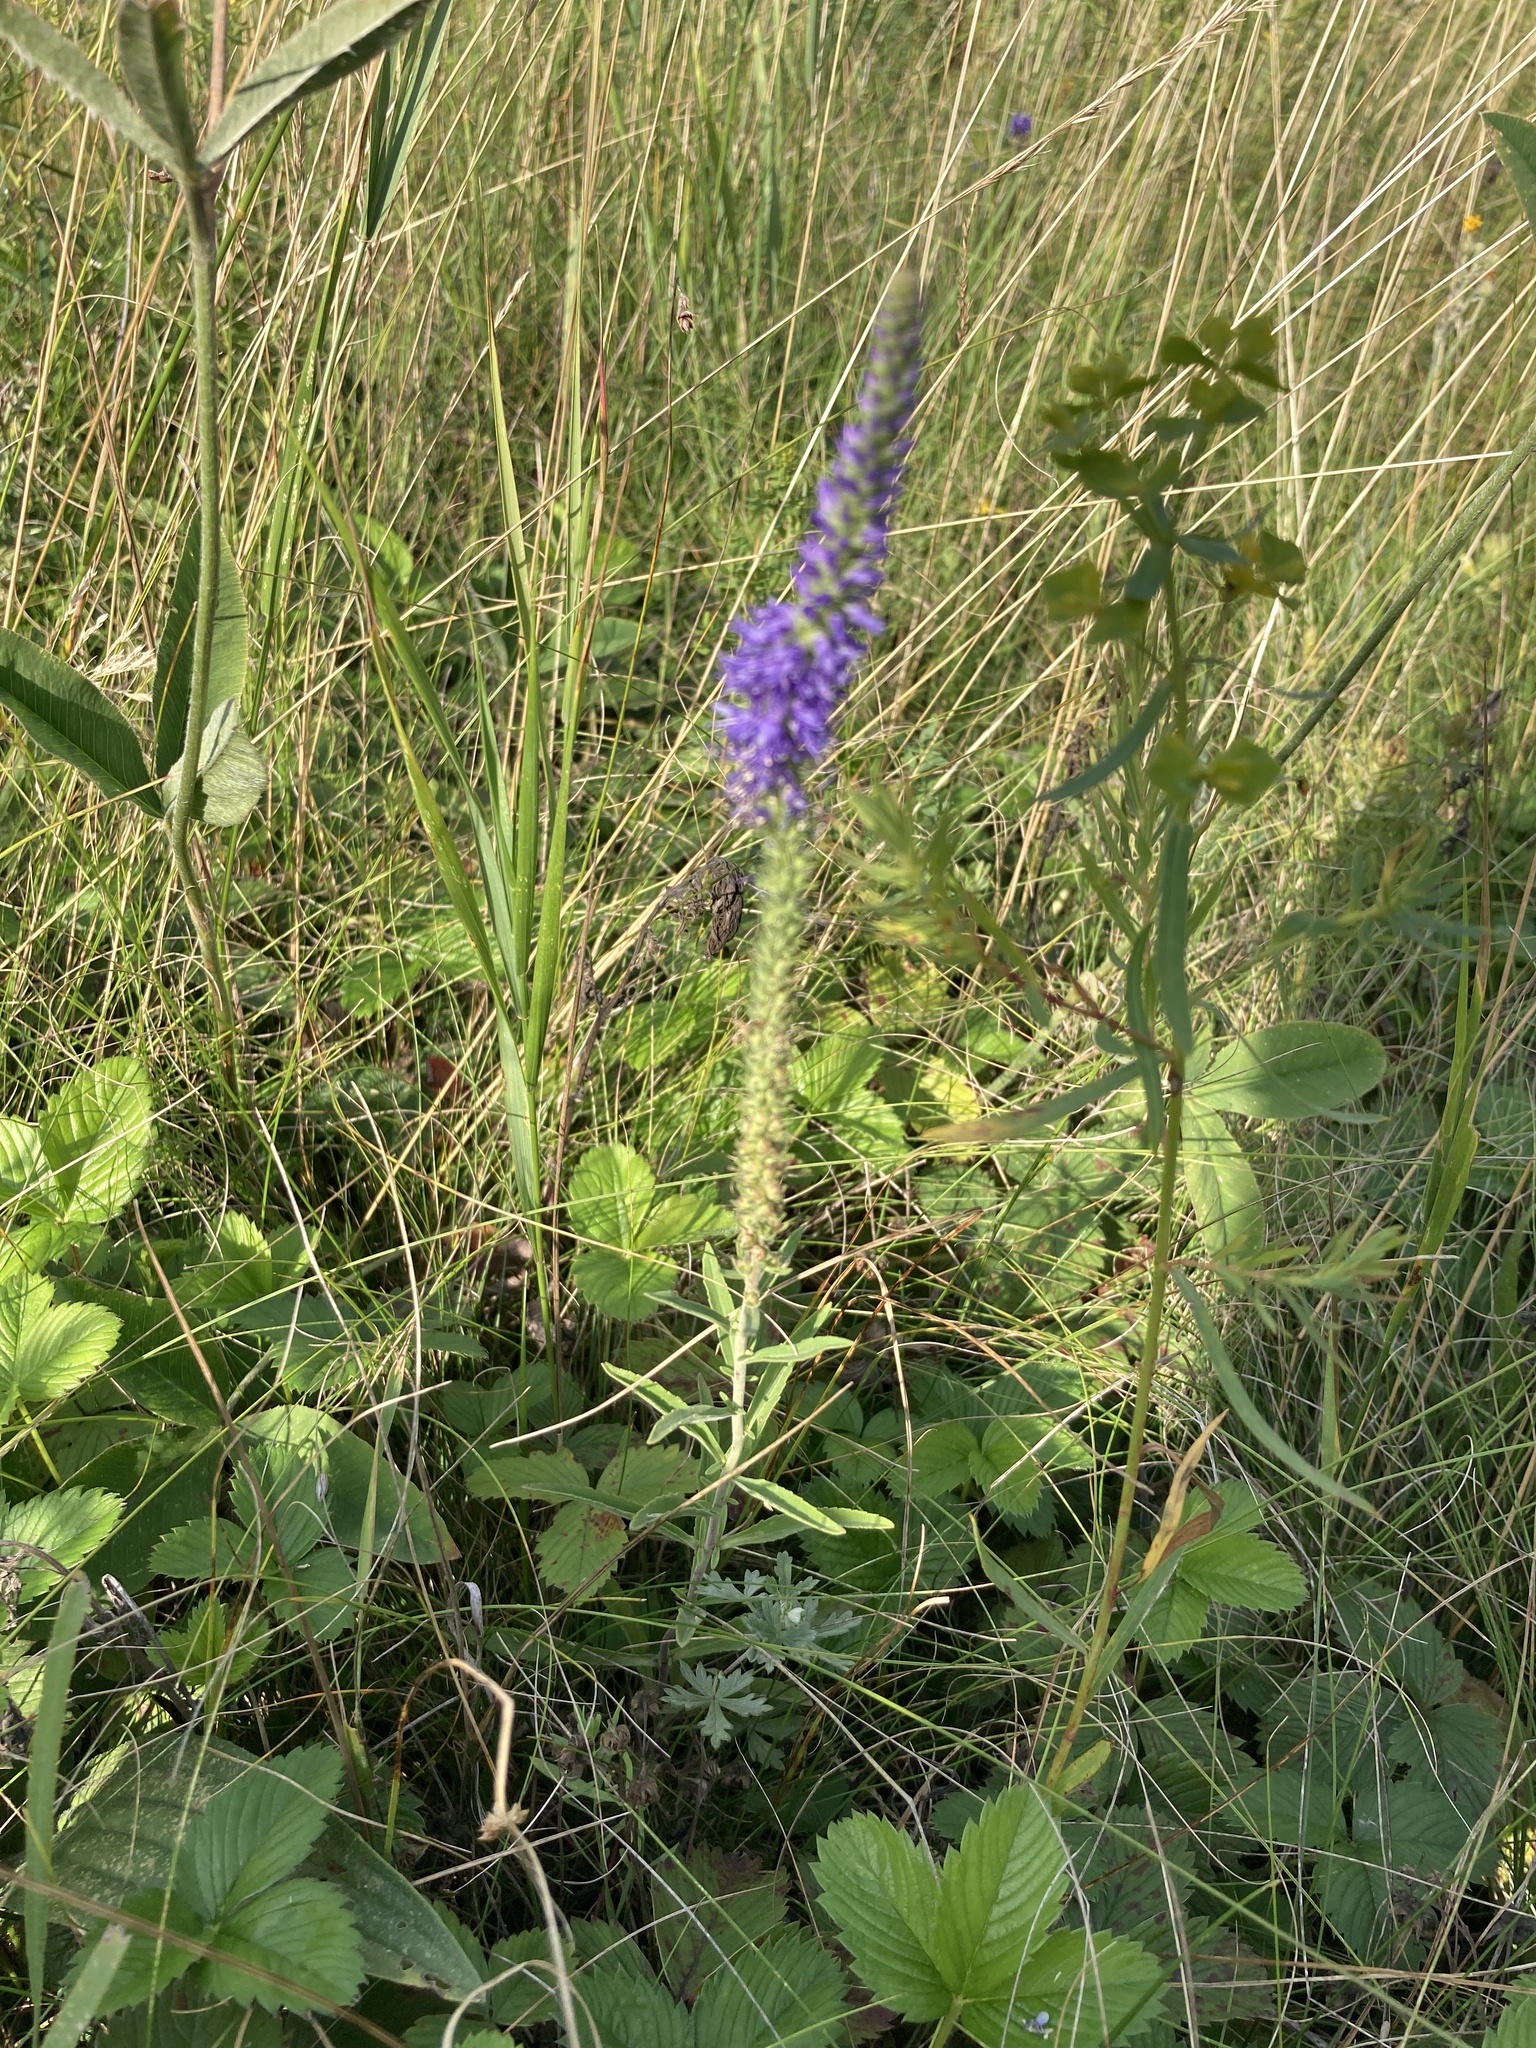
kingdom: Plantae
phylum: Tracheophyta
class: Magnoliopsida
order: Lamiales
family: Plantaginaceae
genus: Veronica
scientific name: Veronica spicata
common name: Spiked speedwell
